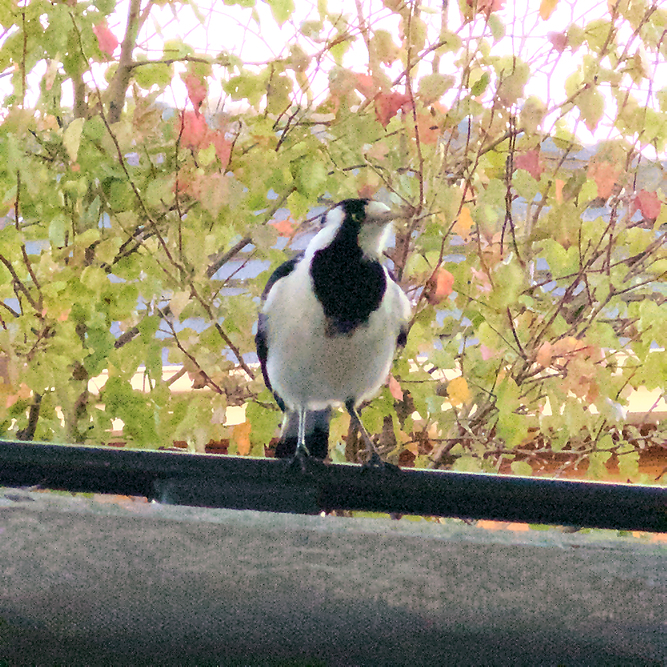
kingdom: Animalia
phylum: Chordata
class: Aves
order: Passeriformes
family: Monarchidae
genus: Grallina
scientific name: Grallina cyanoleuca
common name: Magpie-lark
